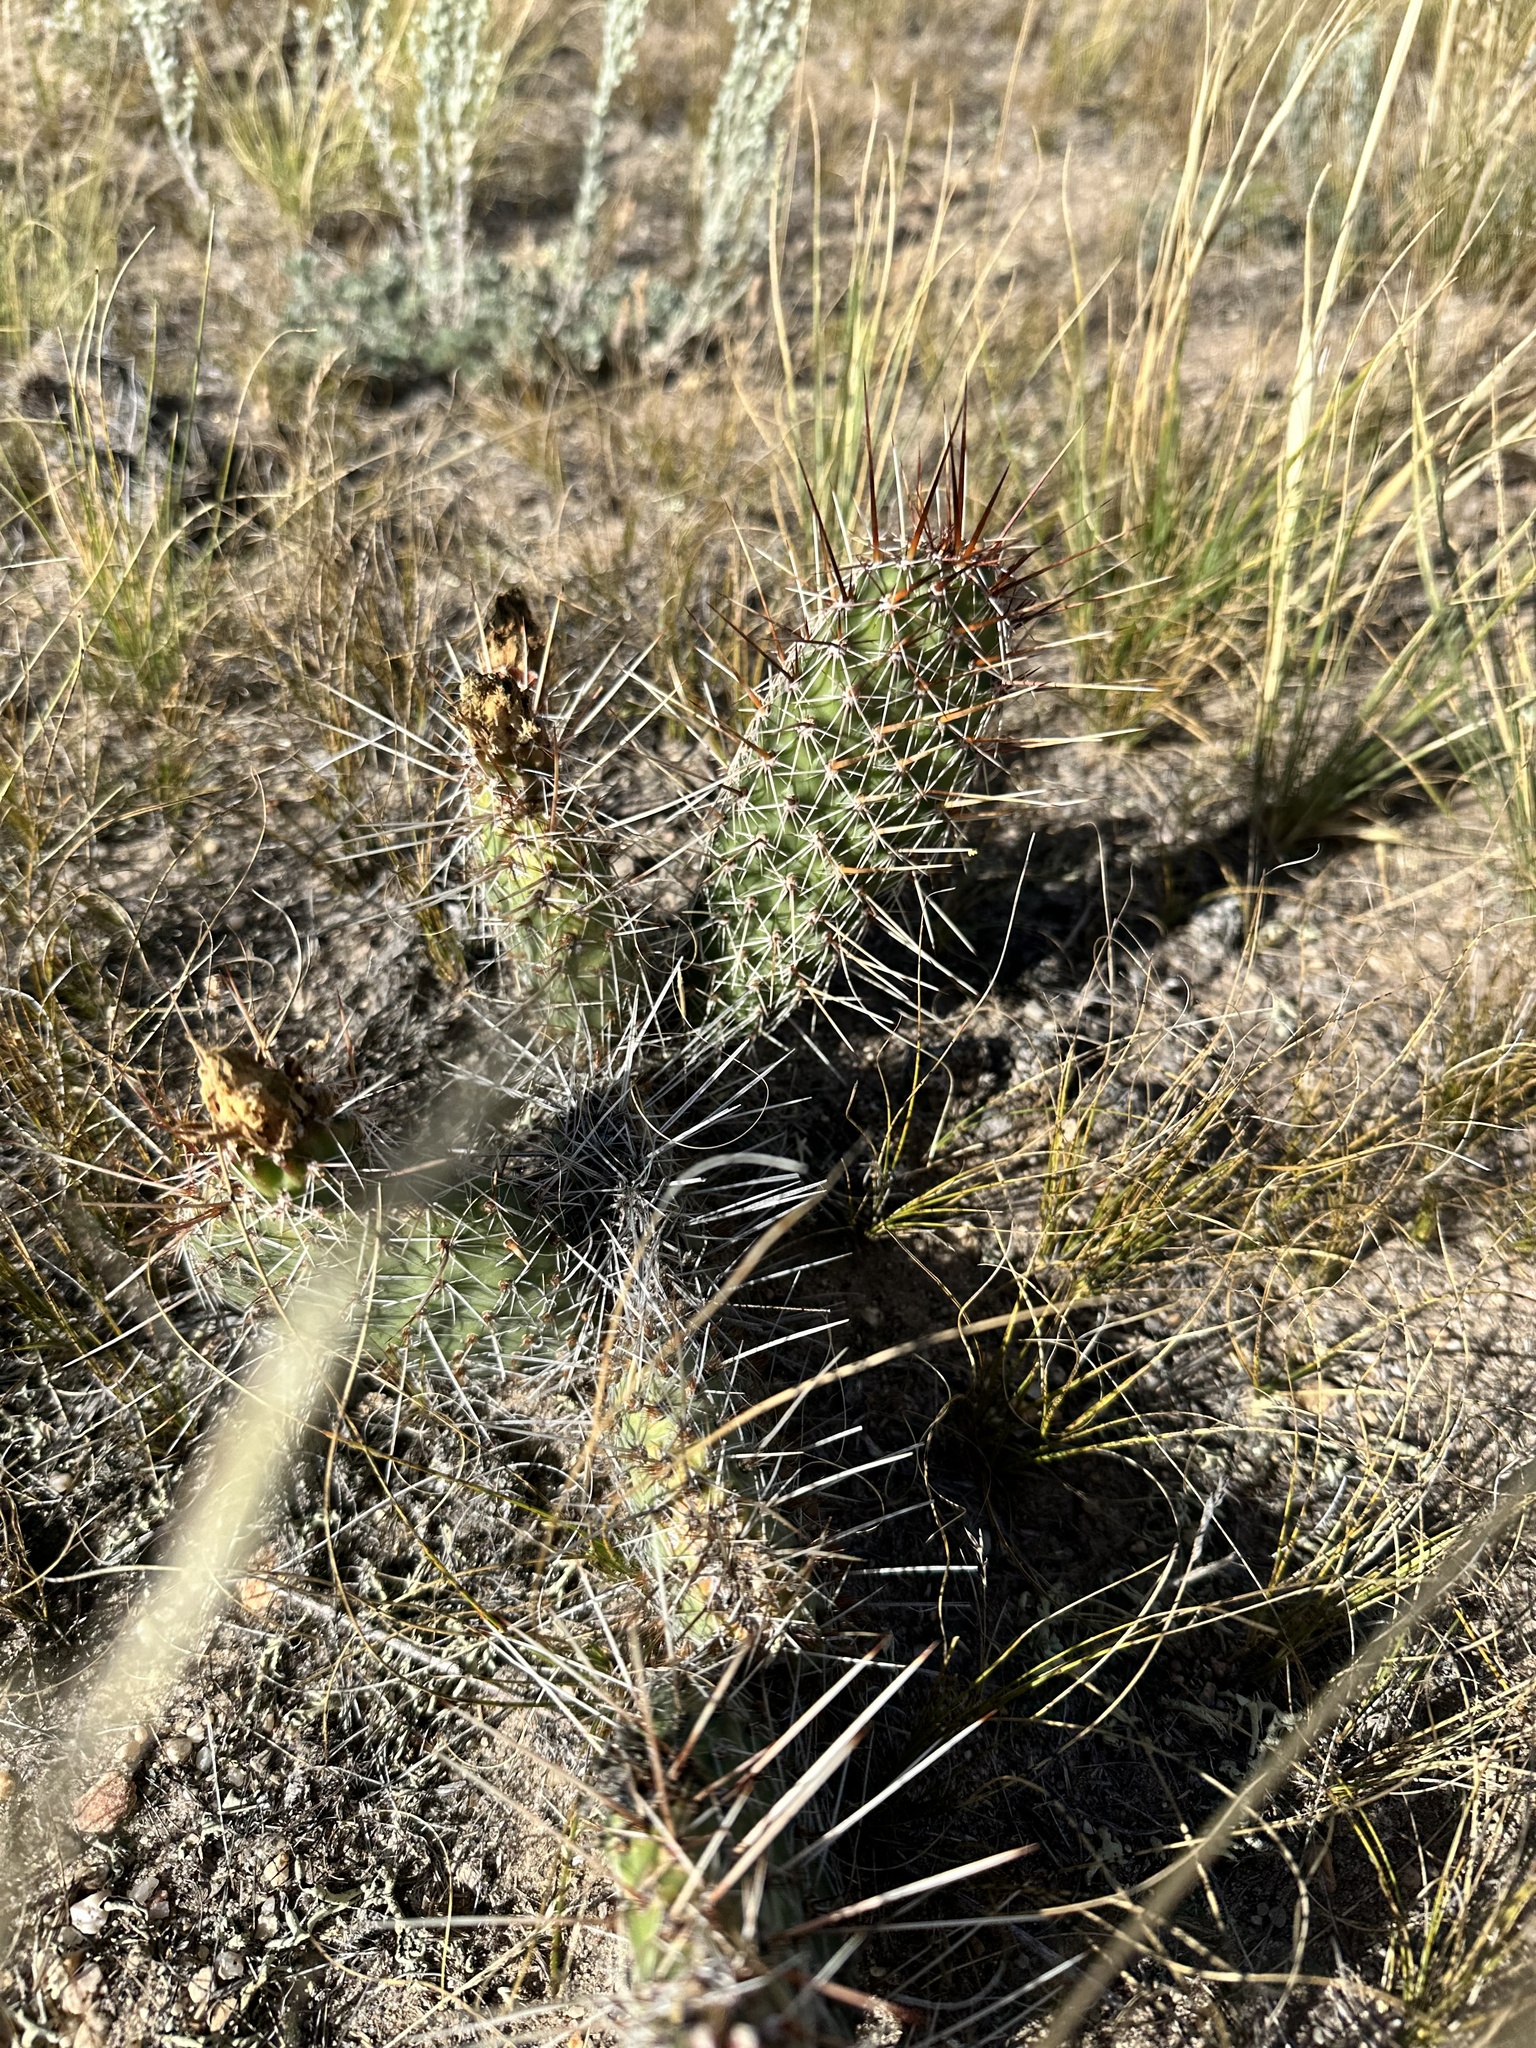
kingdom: Plantae
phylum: Tracheophyta
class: Magnoliopsida
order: Caryophyllales
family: Cactaceae
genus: Opuntia
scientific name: Opuntia polyacantha
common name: Plains prickly-pear
